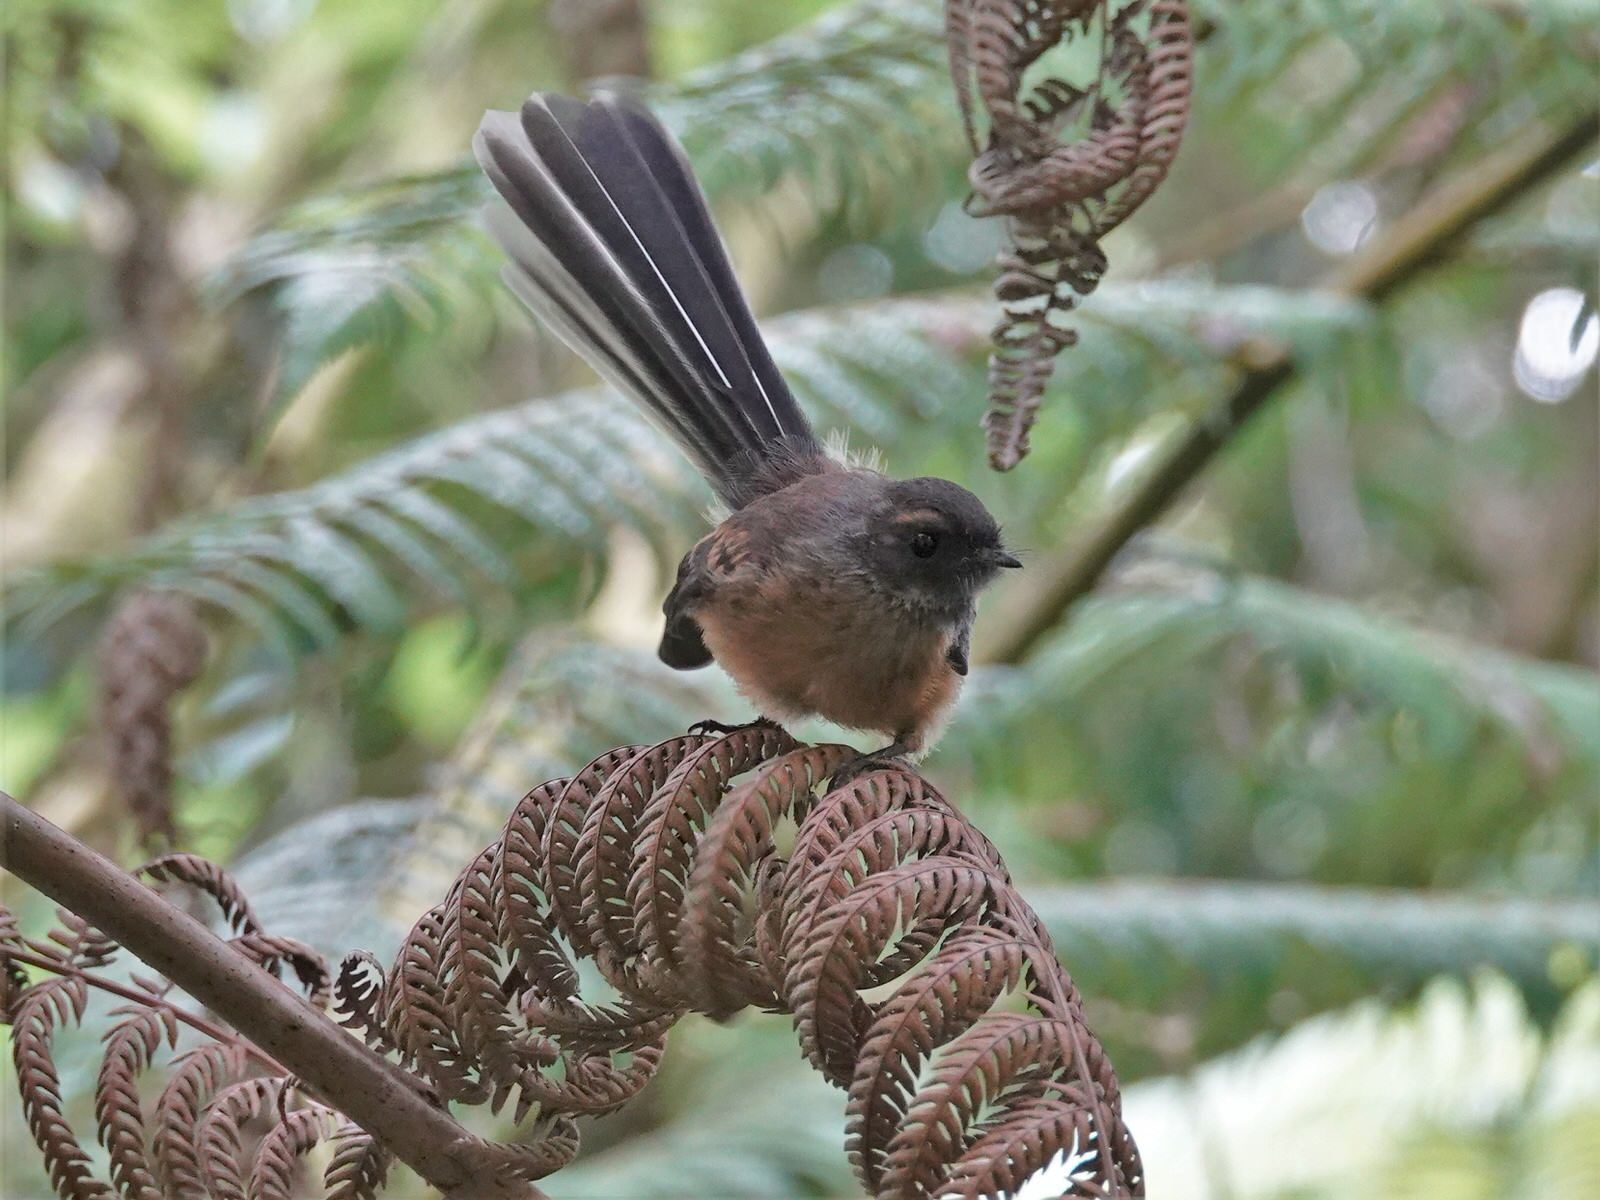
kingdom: Animalia
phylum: Chordata
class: Aves
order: Passeriformes
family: Rhipiduridae
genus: Rhipidura
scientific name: Rhipidura fuliginosa
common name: New zealand fantail
